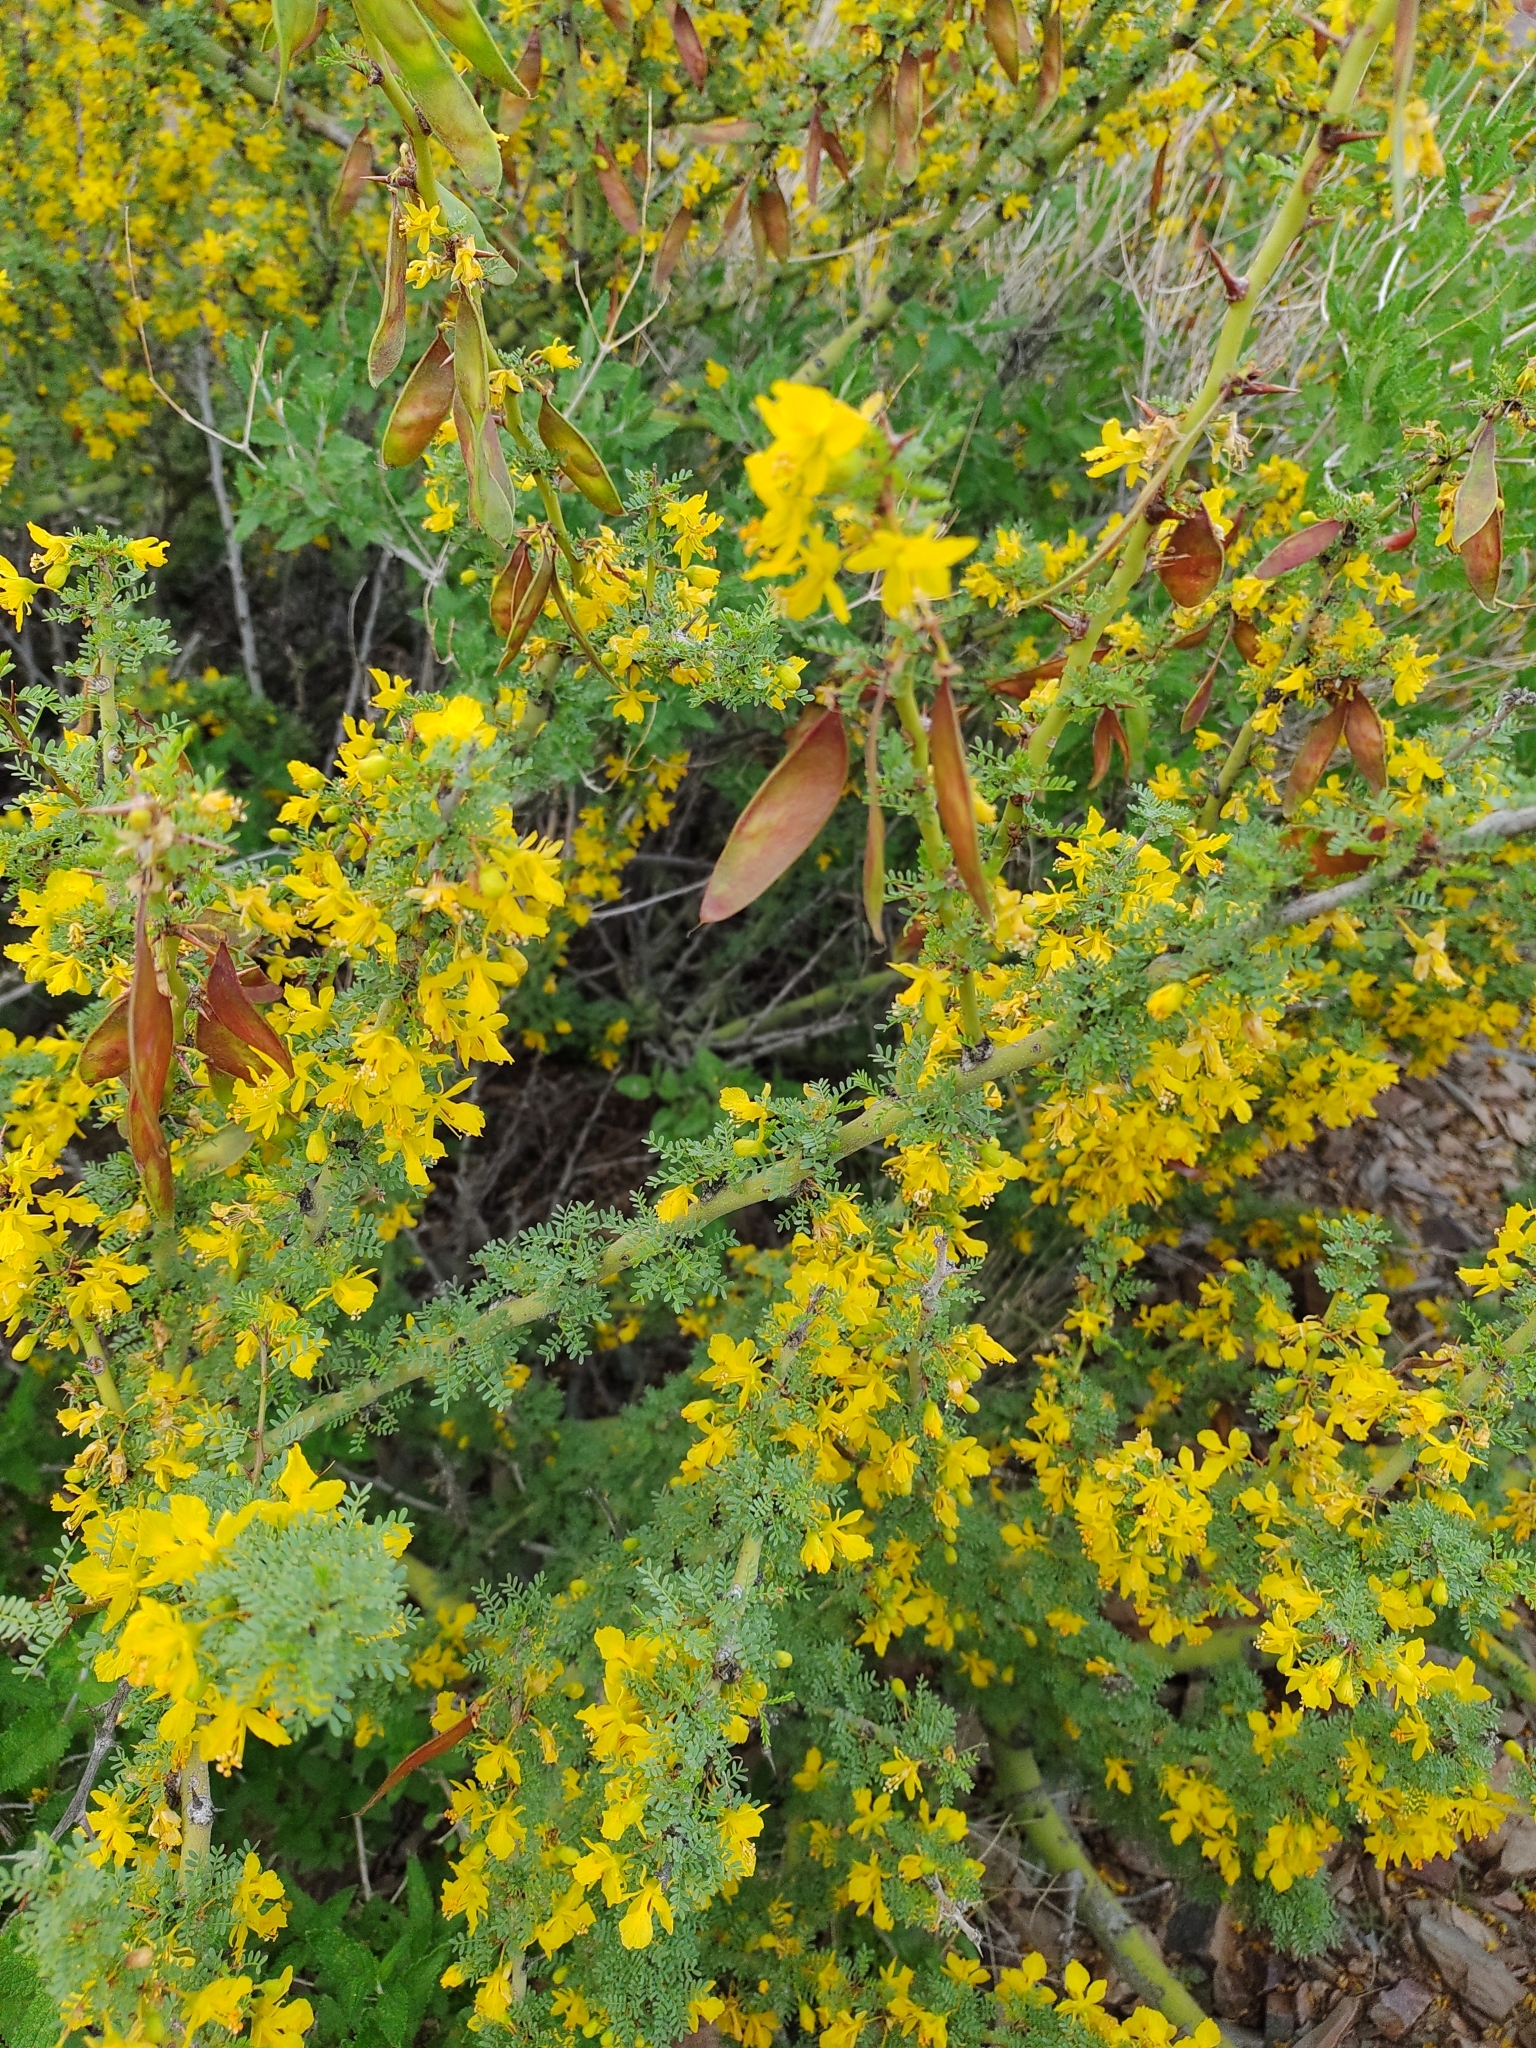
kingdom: Plantae
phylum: Tracheophyta
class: Magnoliopsida
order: Fabales
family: Fabaceae
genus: Parkinsonia
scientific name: Parkinsonia praecox
